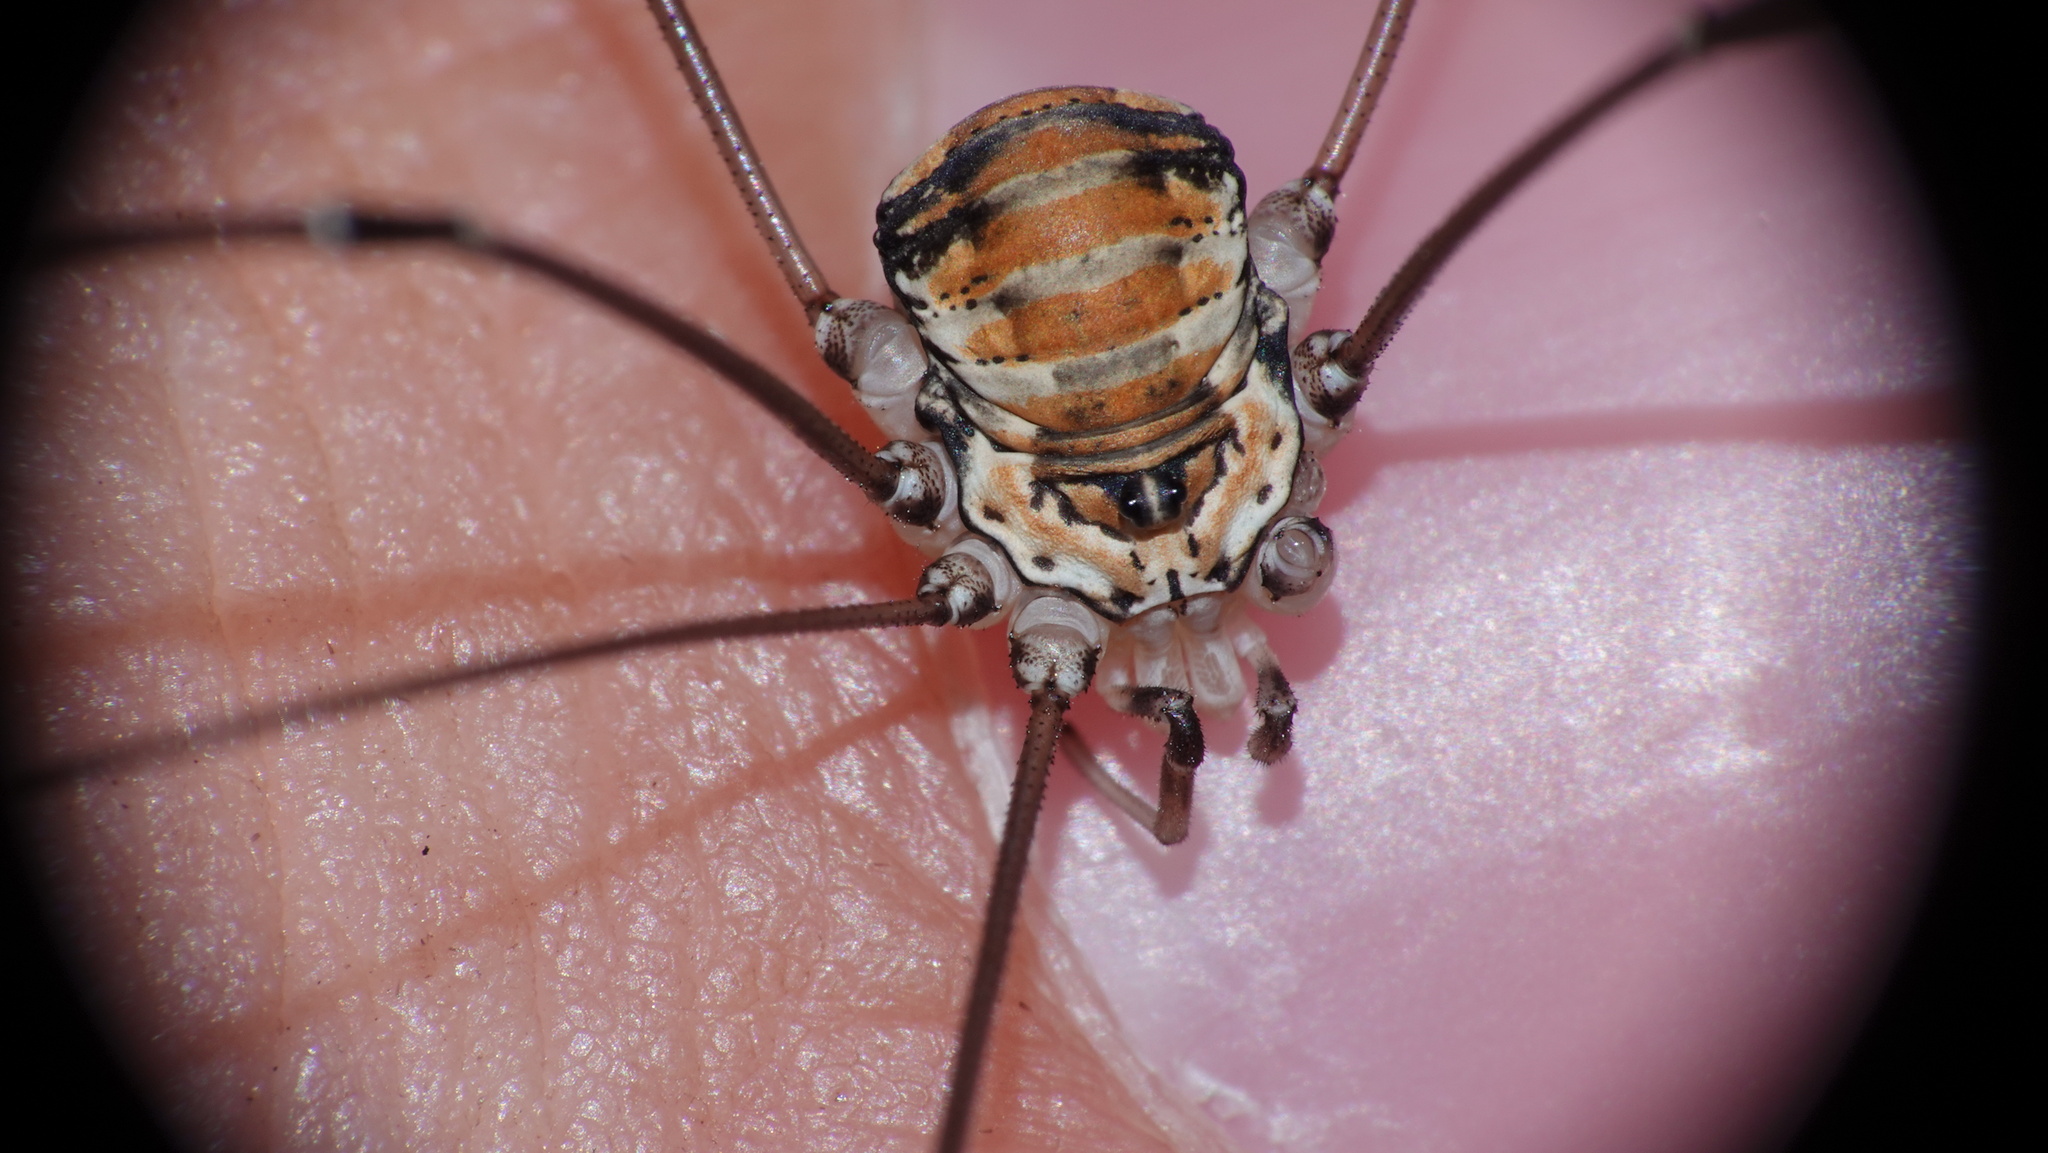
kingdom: Animalia
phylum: Arthropoda
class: Arachnida
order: Opiliones
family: Sclerosomatidae
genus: Leiobunum
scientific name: Leiobunum limbatum
